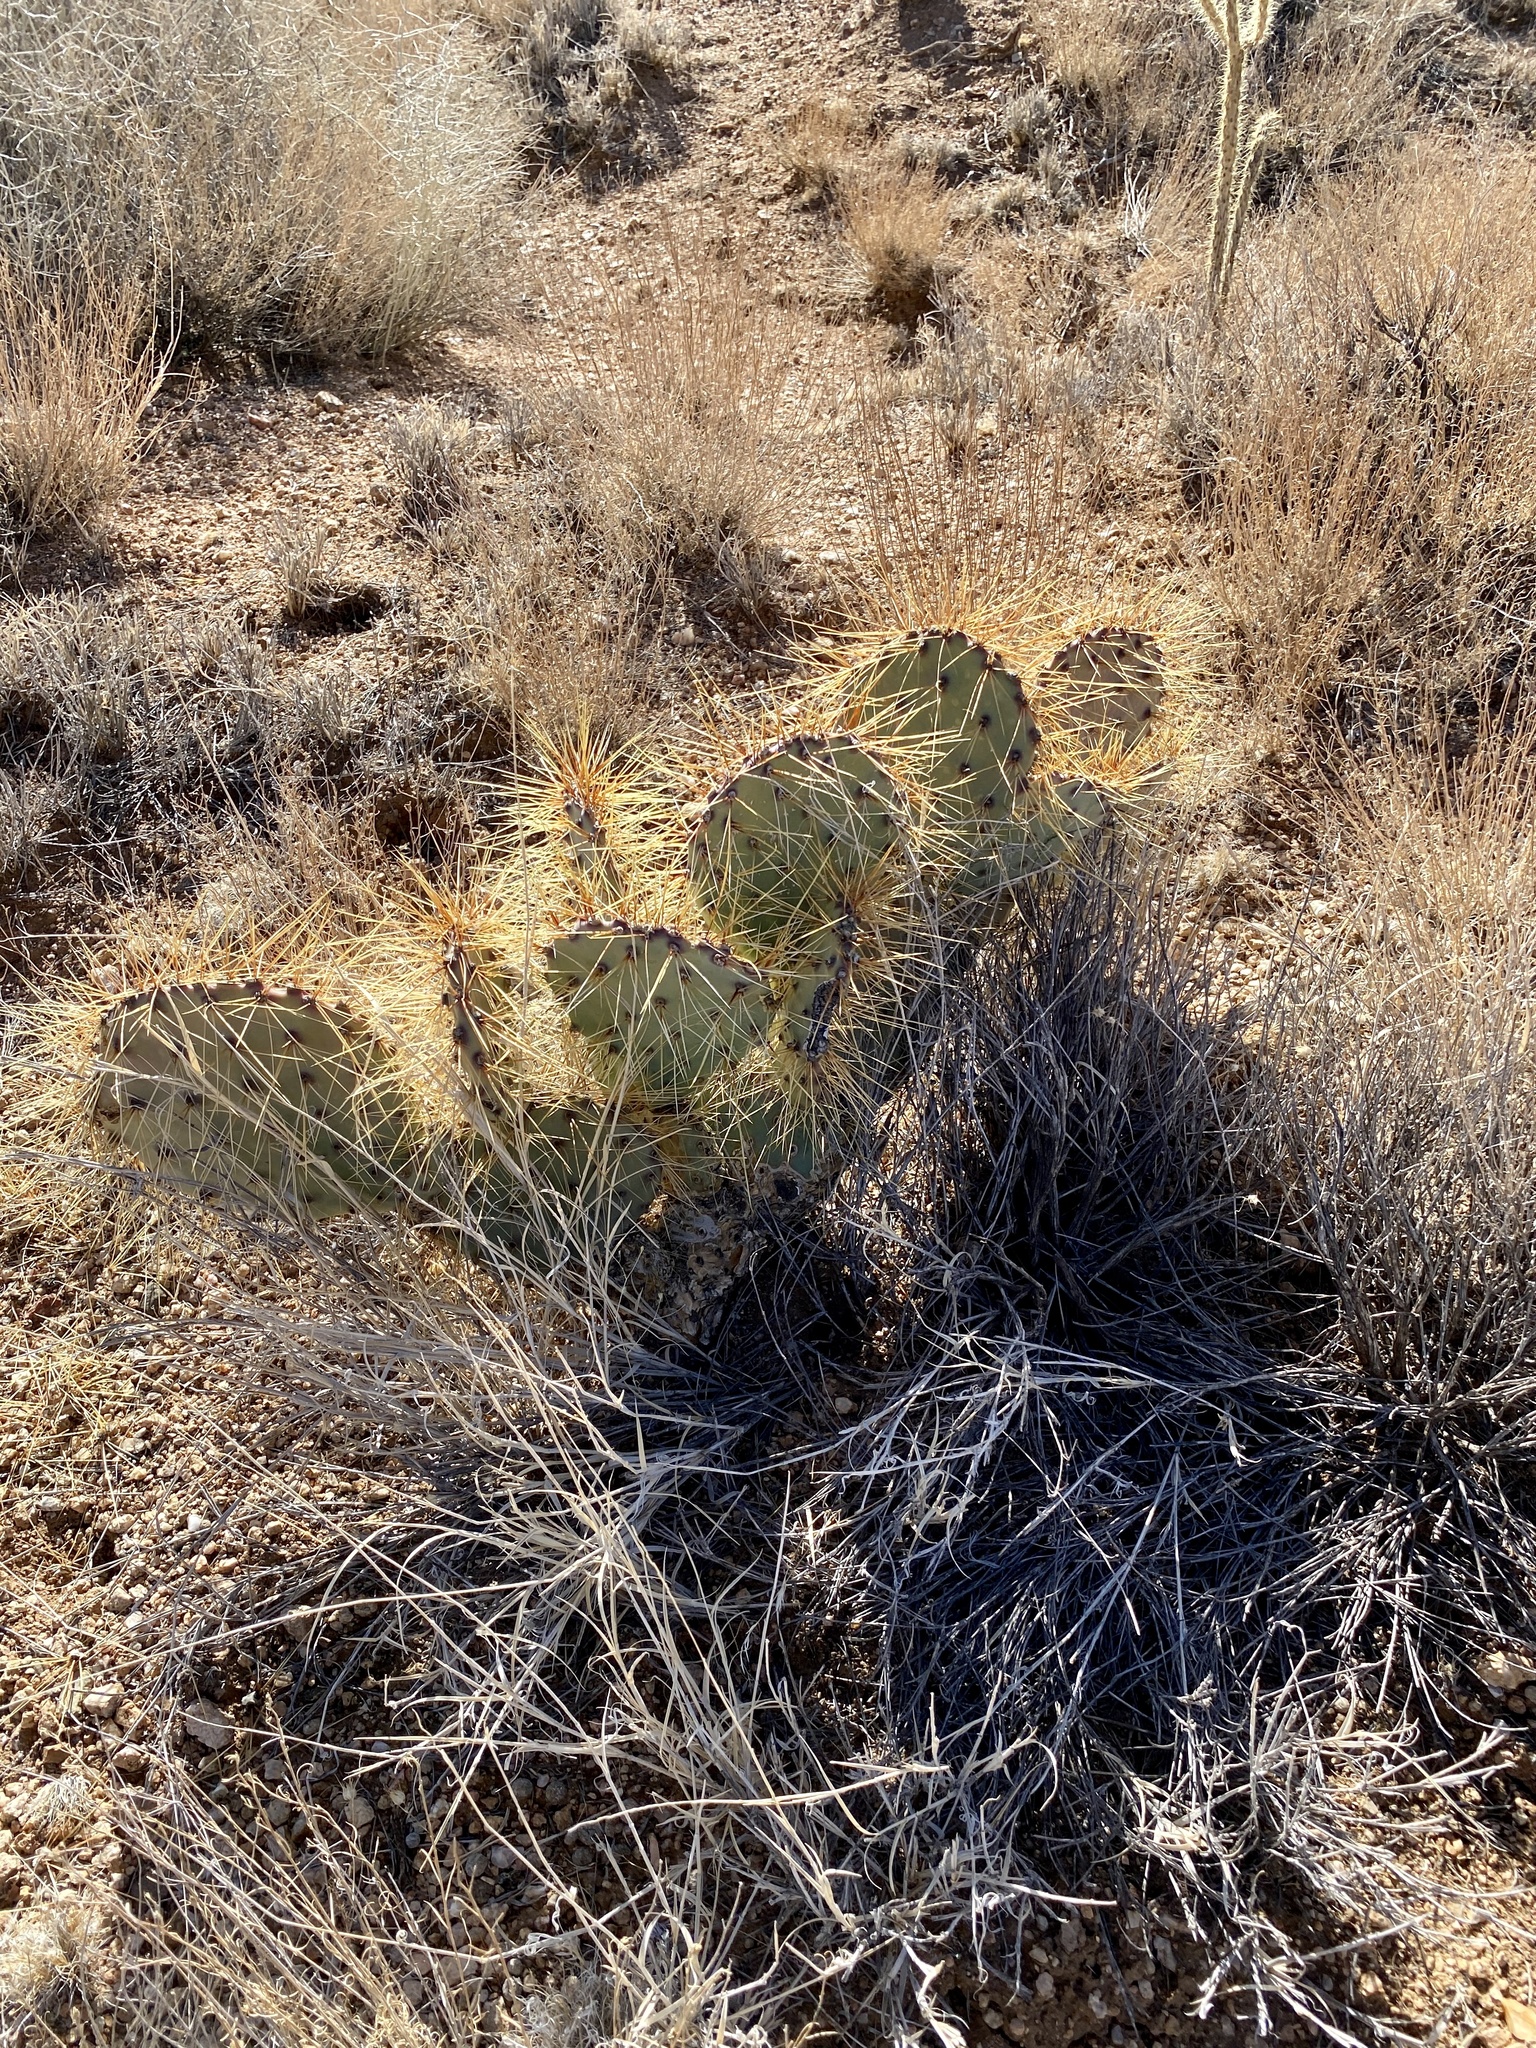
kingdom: Plantae
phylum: Tracheophyta
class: Magnoliopsida
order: Caryophyllales
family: Cactaceae
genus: Opuntia
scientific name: Opuntia phaeacantha
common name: New mexico prickly-pear
